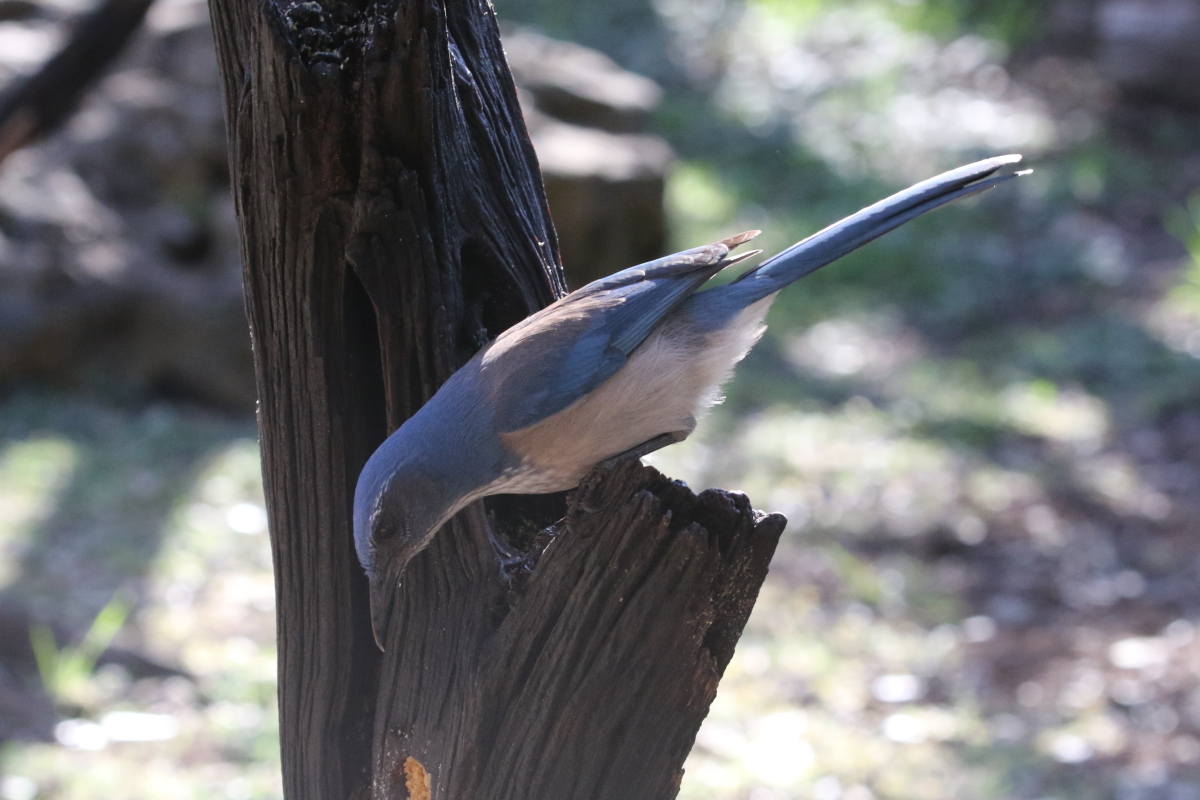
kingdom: Animalia
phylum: Chordata
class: Aves
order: Passeriformes
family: Corvidae
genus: Aphelocoma
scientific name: Aphelocoma woodhouseii
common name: Woodhouse's scrub-jay
